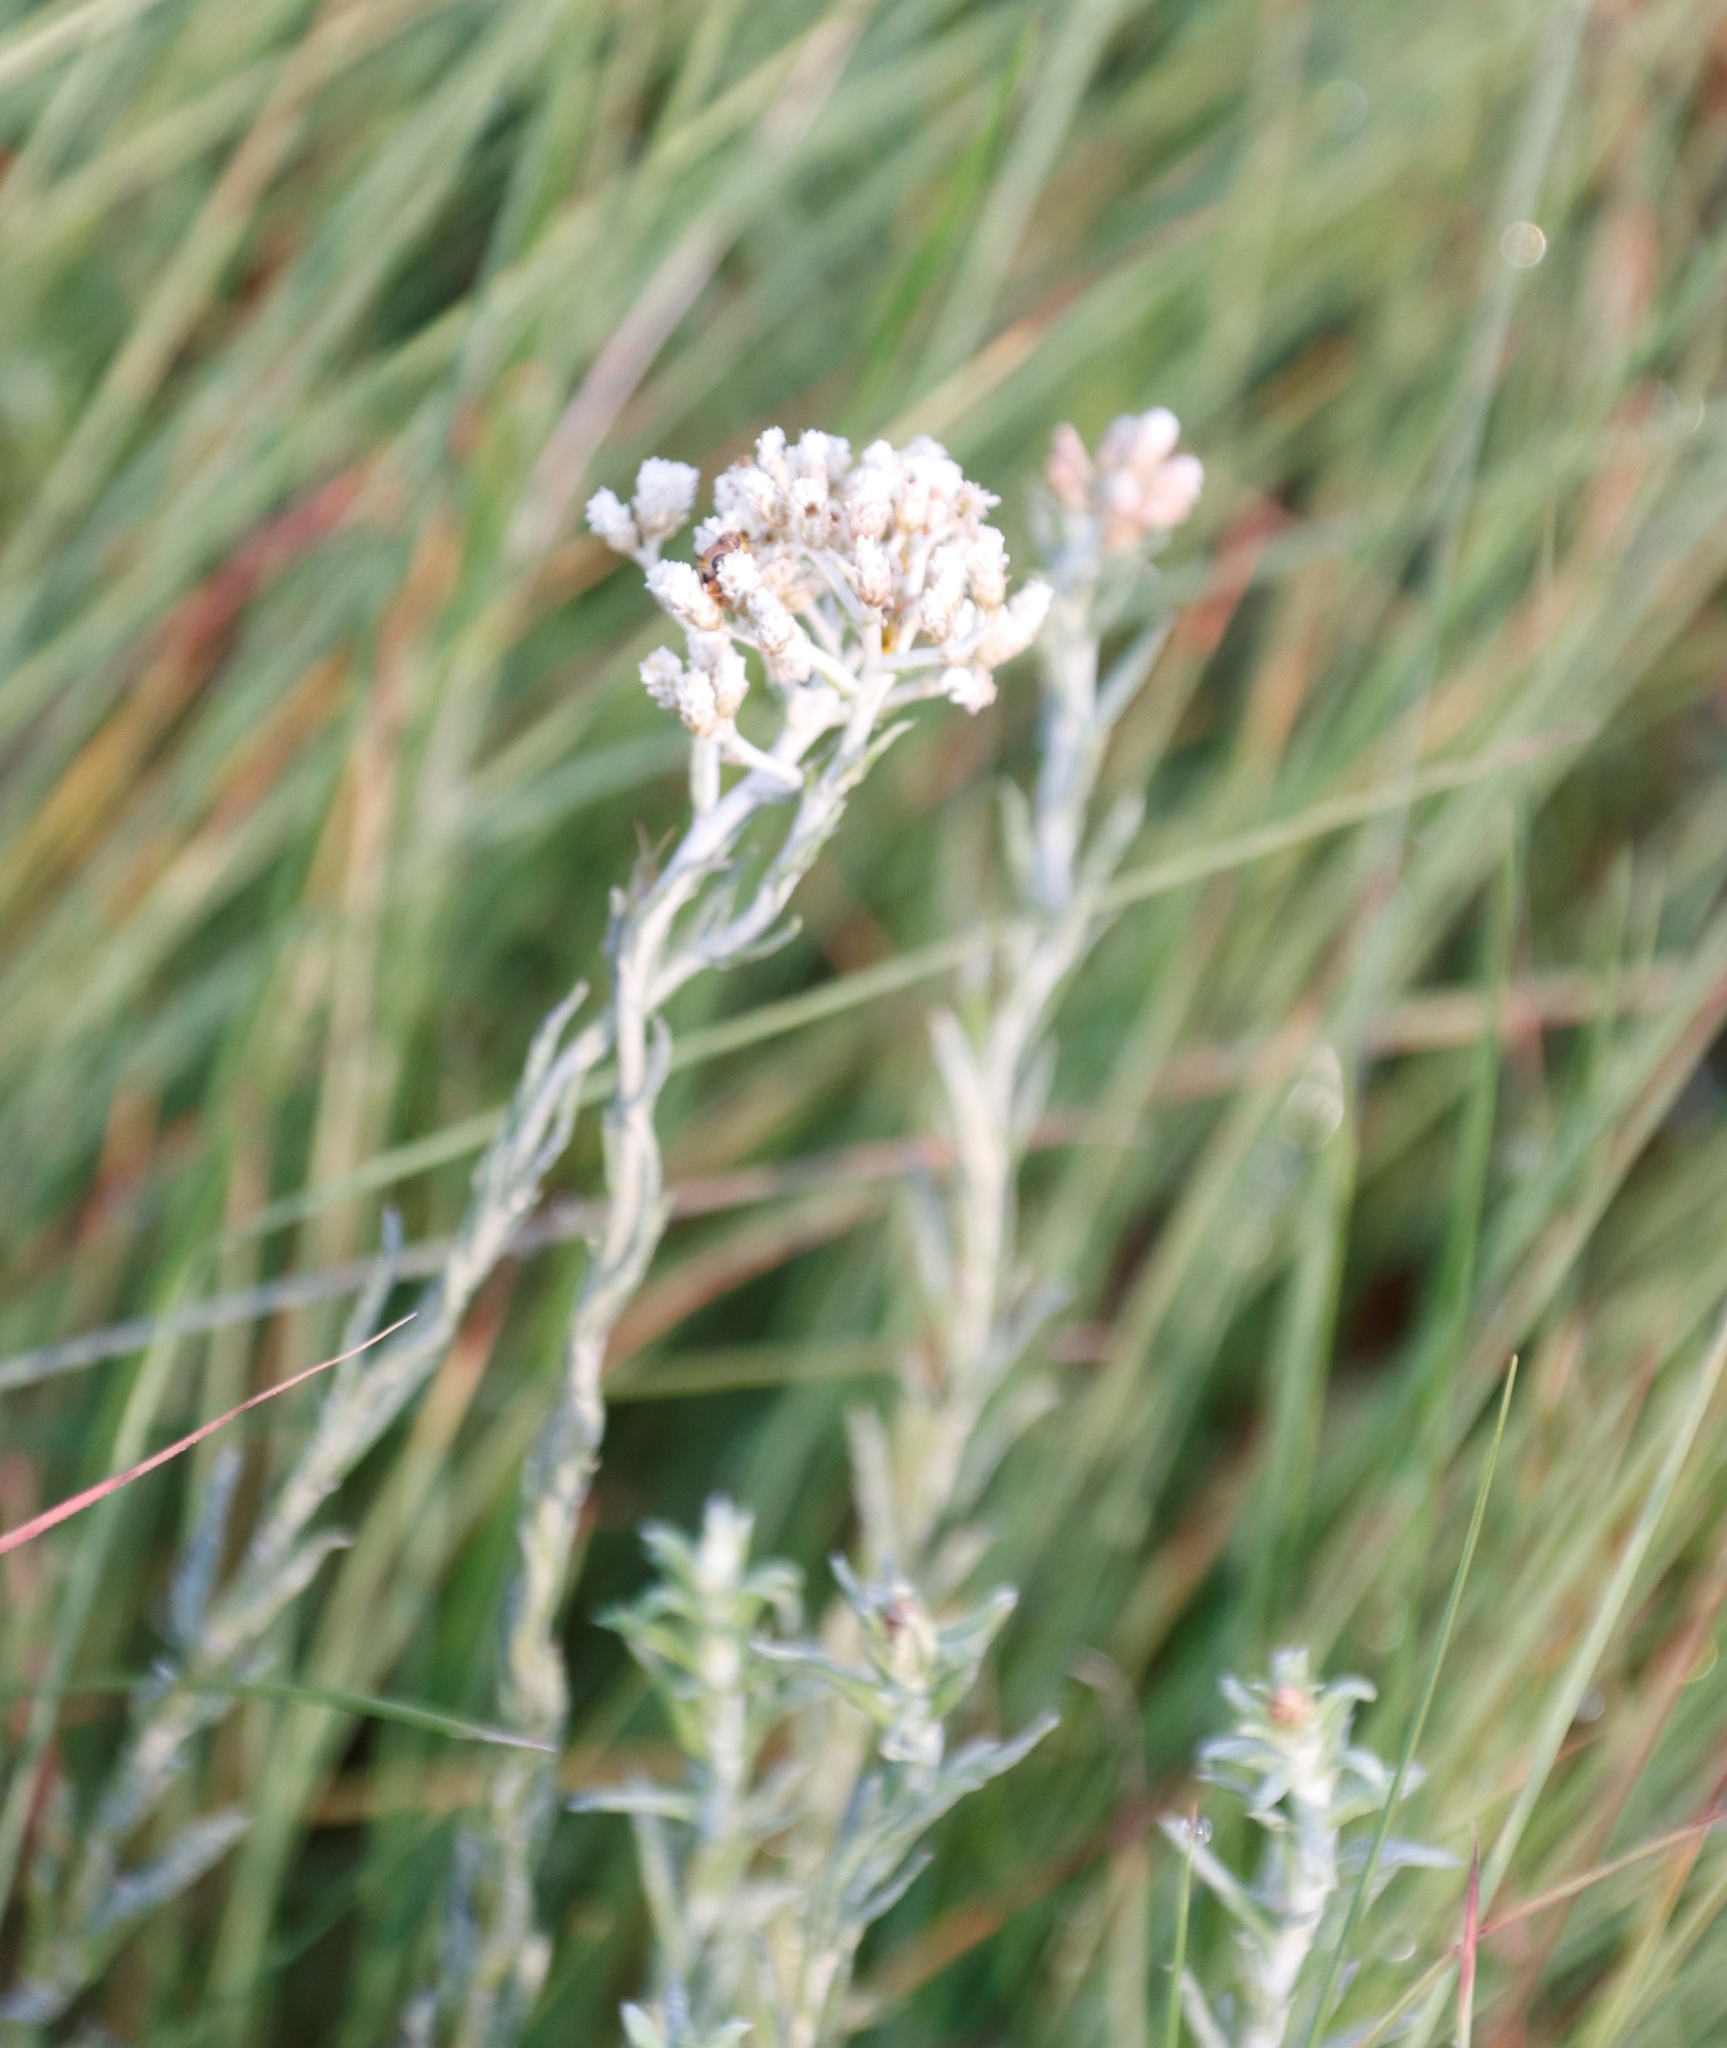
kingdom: Plantae
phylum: Tracheophyta
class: Magnoliopsida
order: Asterales
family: Asteraceae
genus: Helichrysum
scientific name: Helichrysum rugulosum
